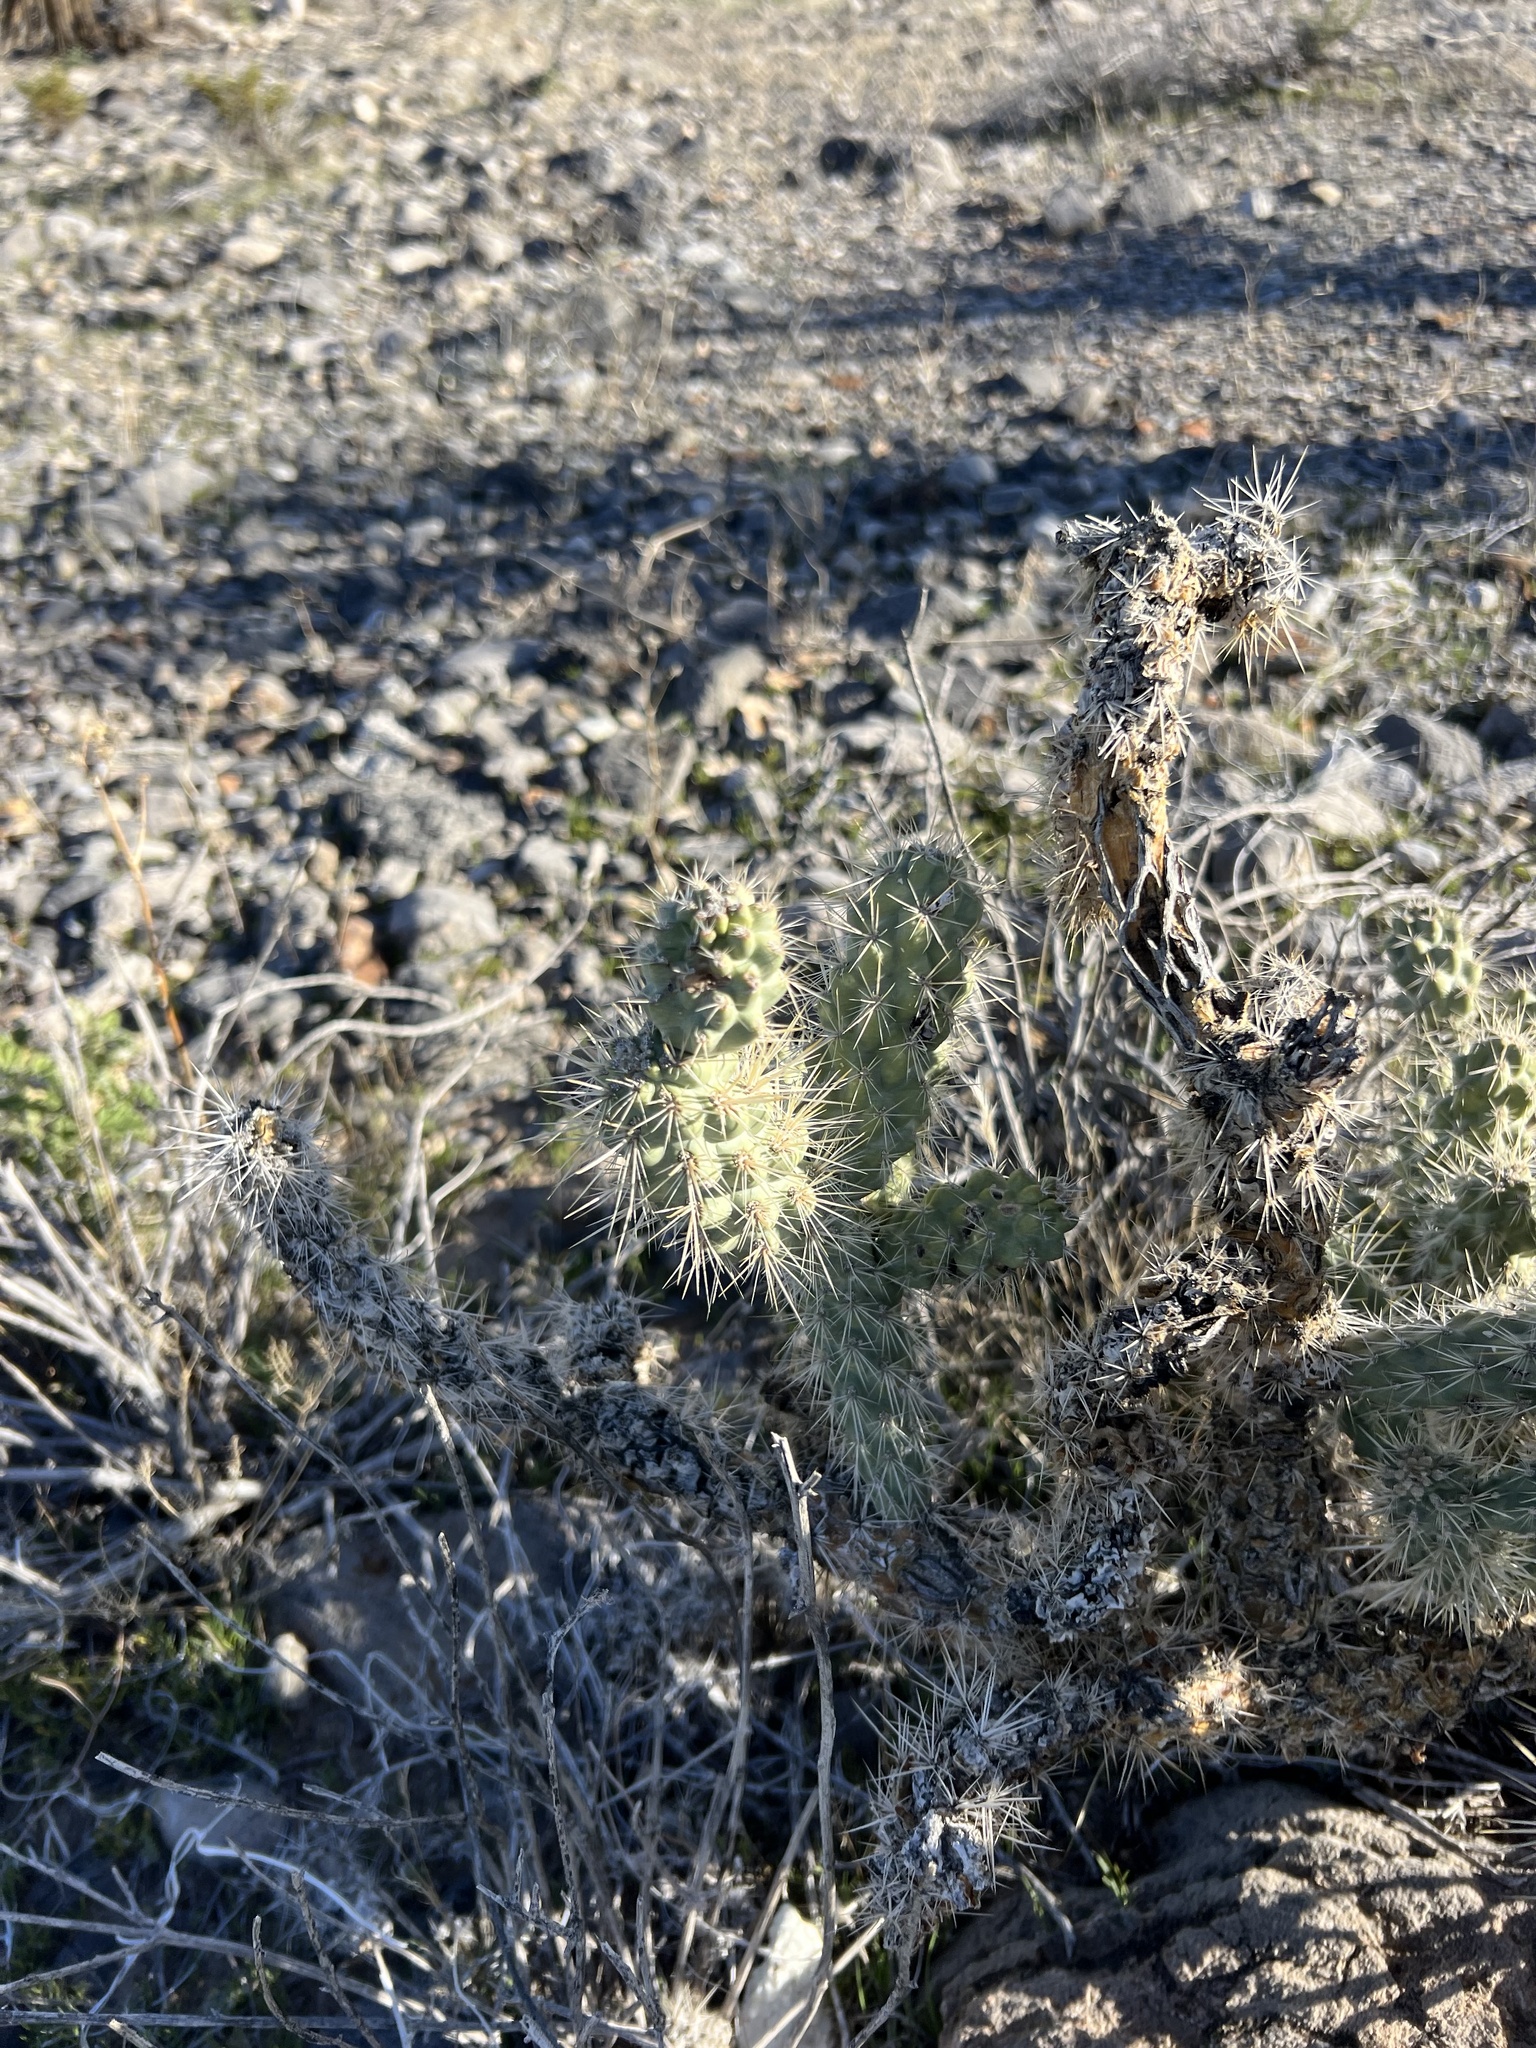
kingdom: Plantae
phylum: Tracheophyta
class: Magnoliopsida
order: Caryophyllales
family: Cactaceae
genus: Cylindropuntia
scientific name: Cylindropuntia echinocarpa
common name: Ground cholla
